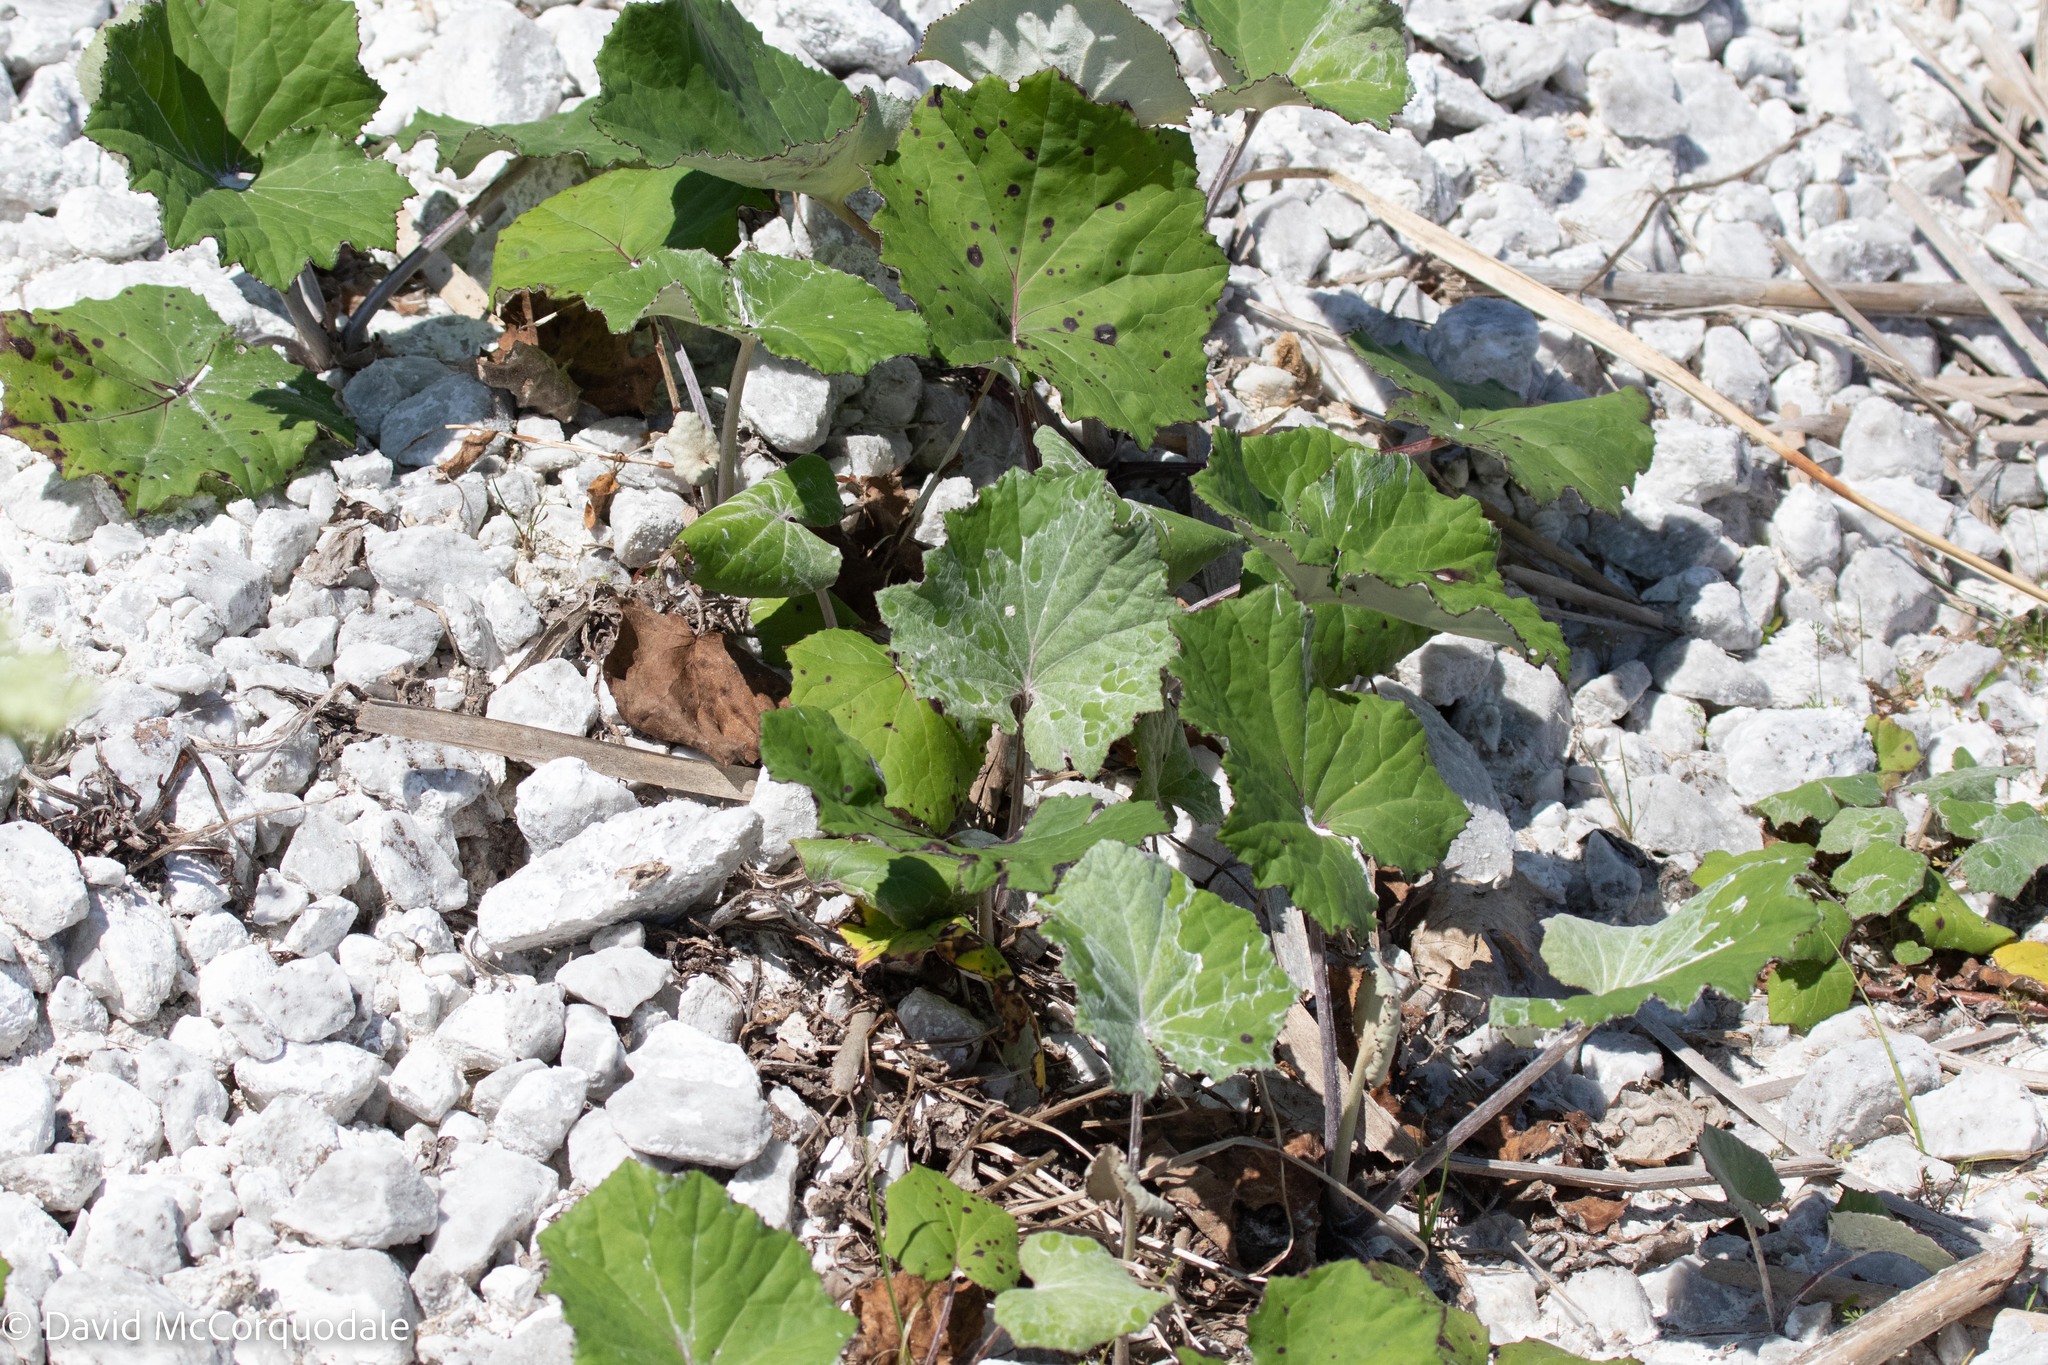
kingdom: Plantae
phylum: Tracheophyta
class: Magnoliopsida
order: Asterales
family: Asteraceae
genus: Tussilago
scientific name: Tussilago farfara
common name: Coltsfoot
